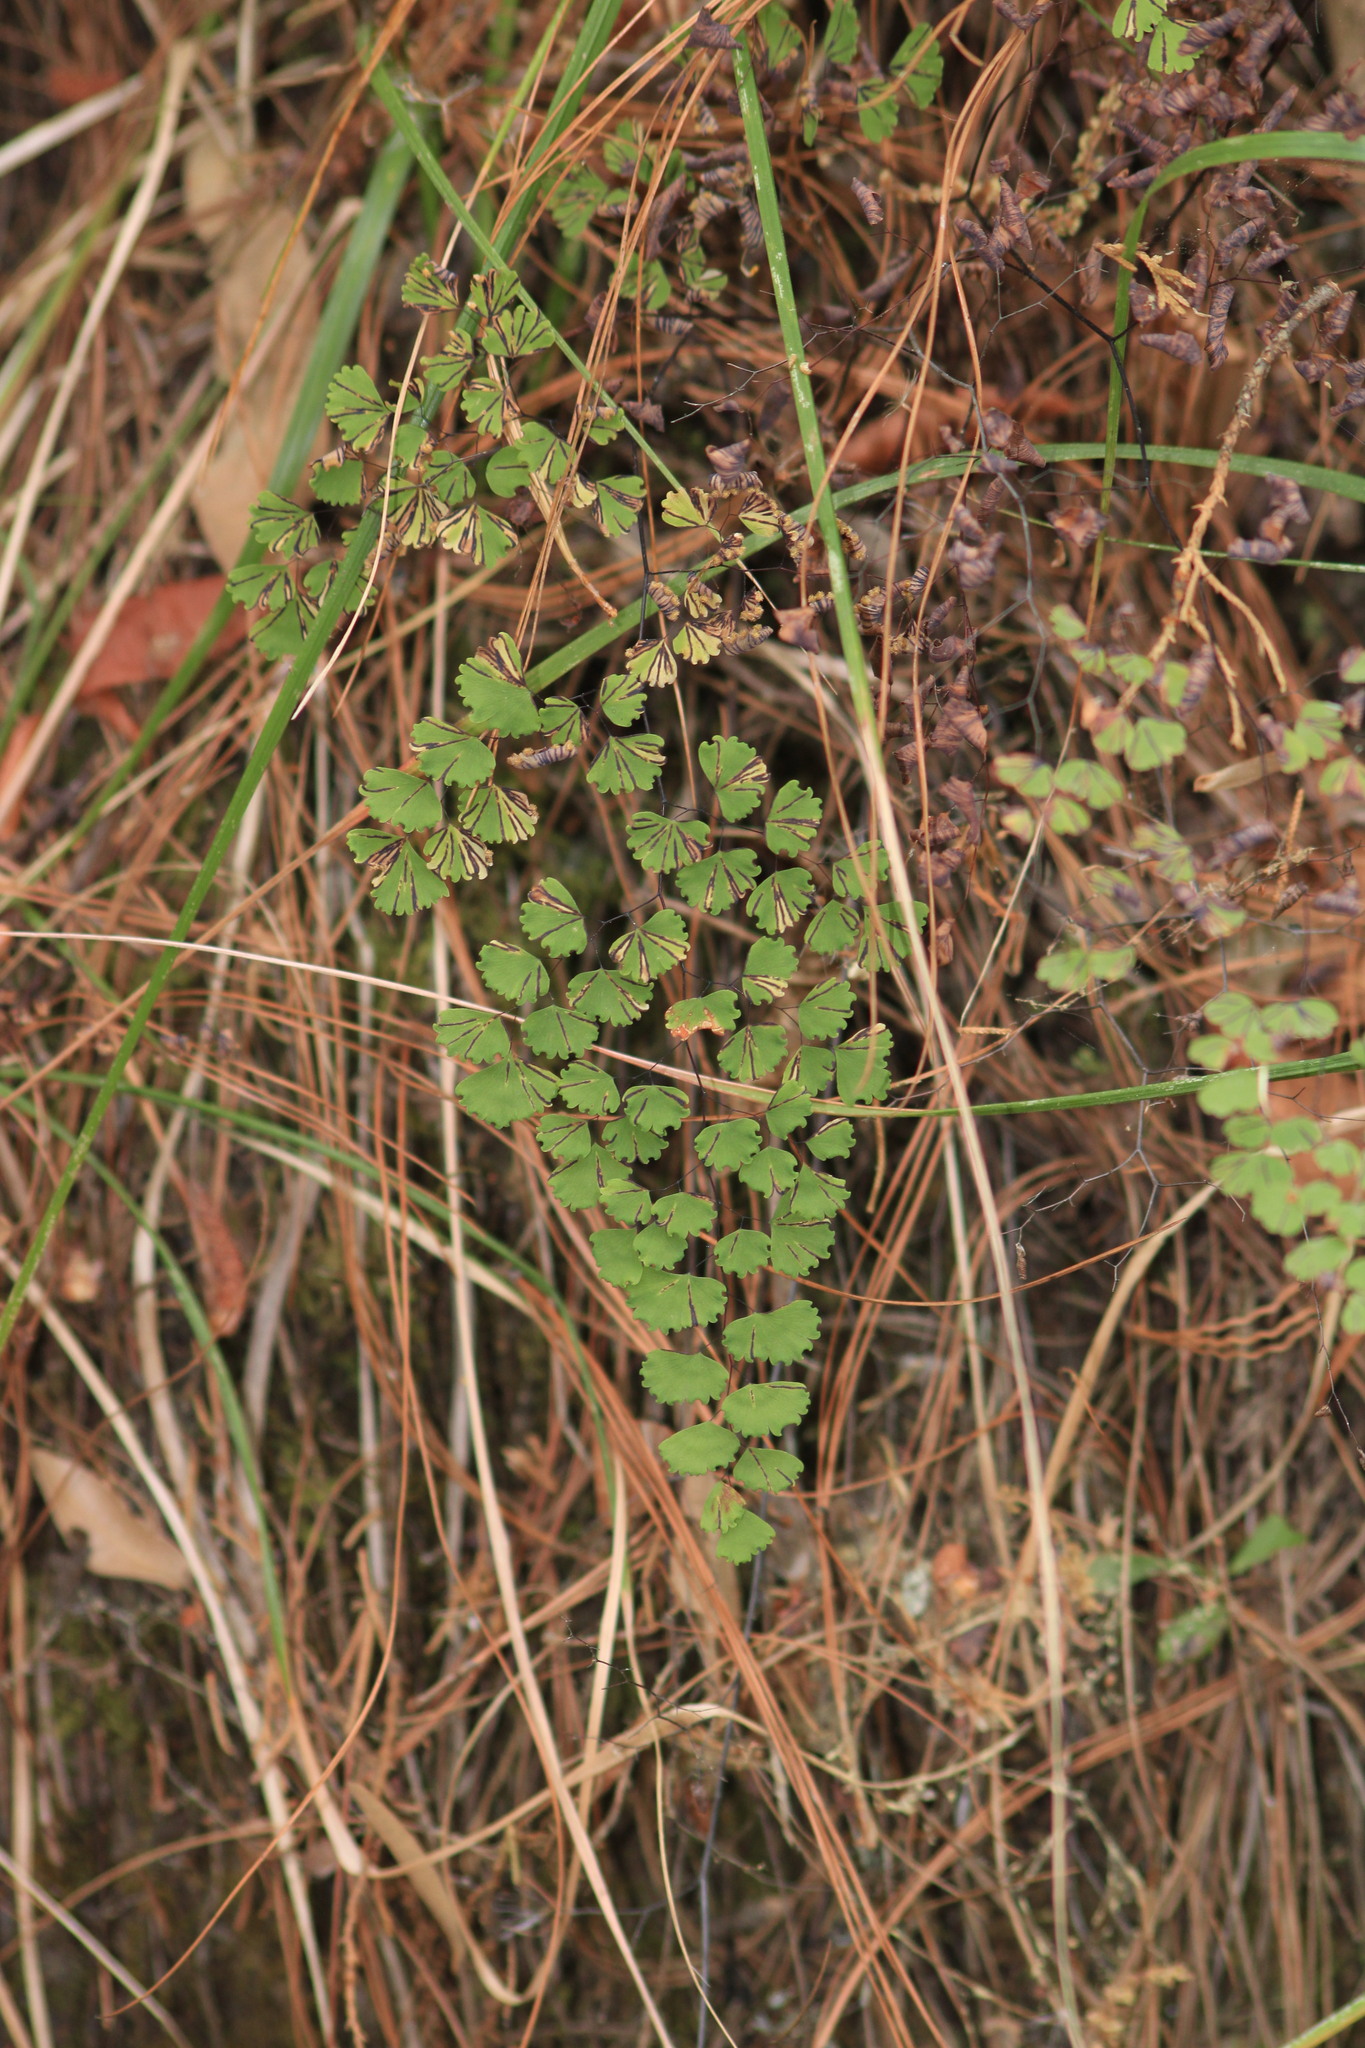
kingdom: Plantae
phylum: Tracheophyta
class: Polypodiopsida
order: Polypodiales
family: Pteridaceae
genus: Adiantum
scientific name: Adiantum poiretii
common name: Mexican maidenhair
